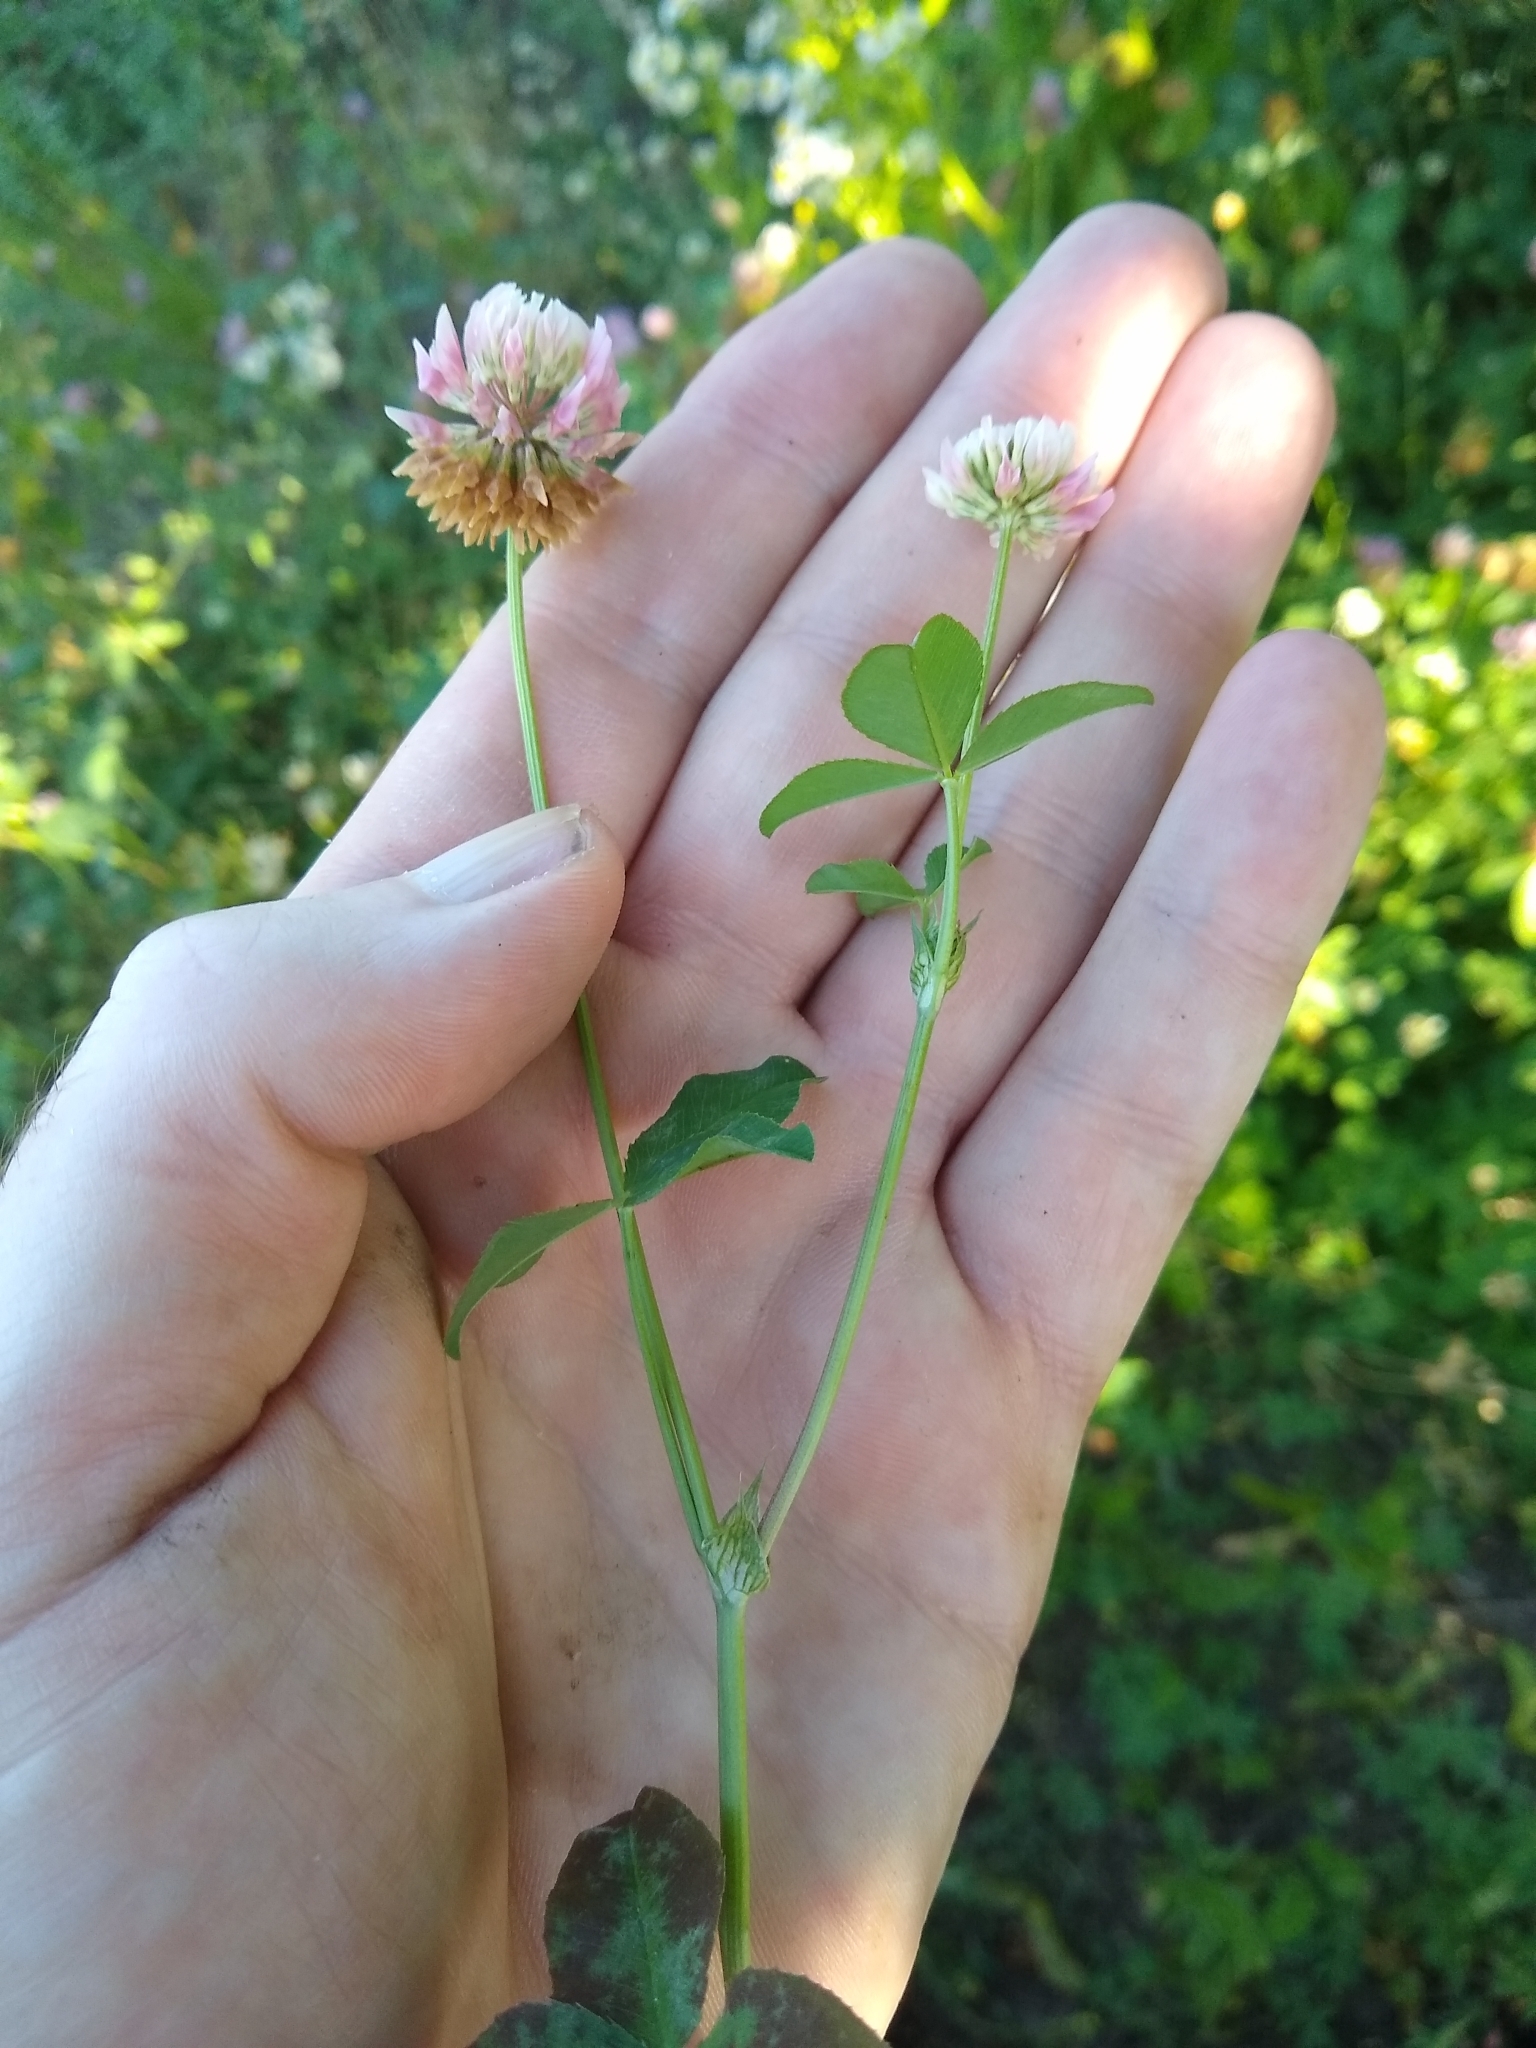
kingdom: Plantae
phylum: Tracheophyta
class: Magnoliopsida
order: Fabales
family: Fabaceae
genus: Trifolium
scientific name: Trifolium hybridum
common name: Alsike clover
